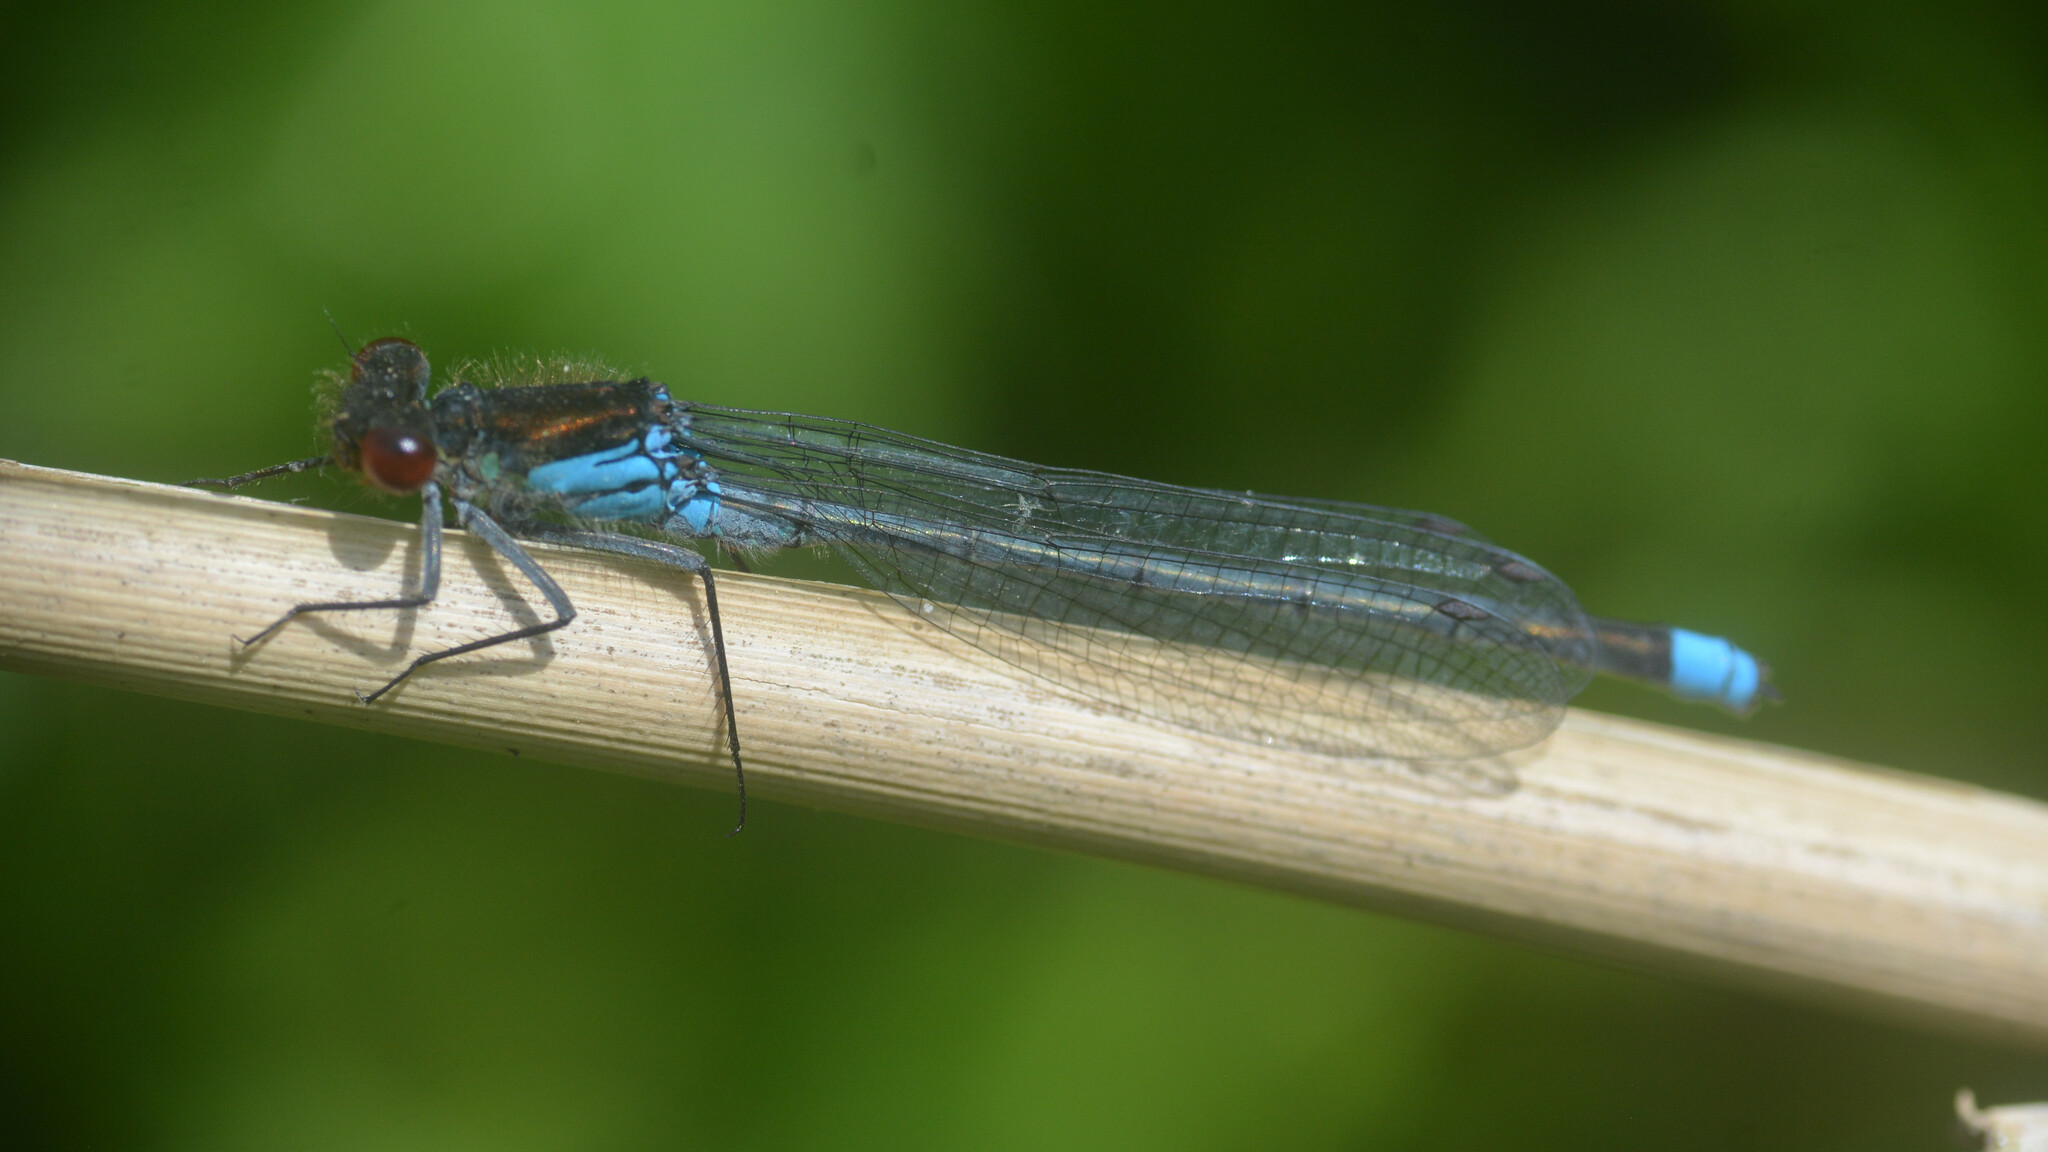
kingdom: Animalia
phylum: Arthropoda
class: Insecta
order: Odonata
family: Coenagrionidae
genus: Erythromma
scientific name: Erythromma najas
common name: Red-eyed damselfly
